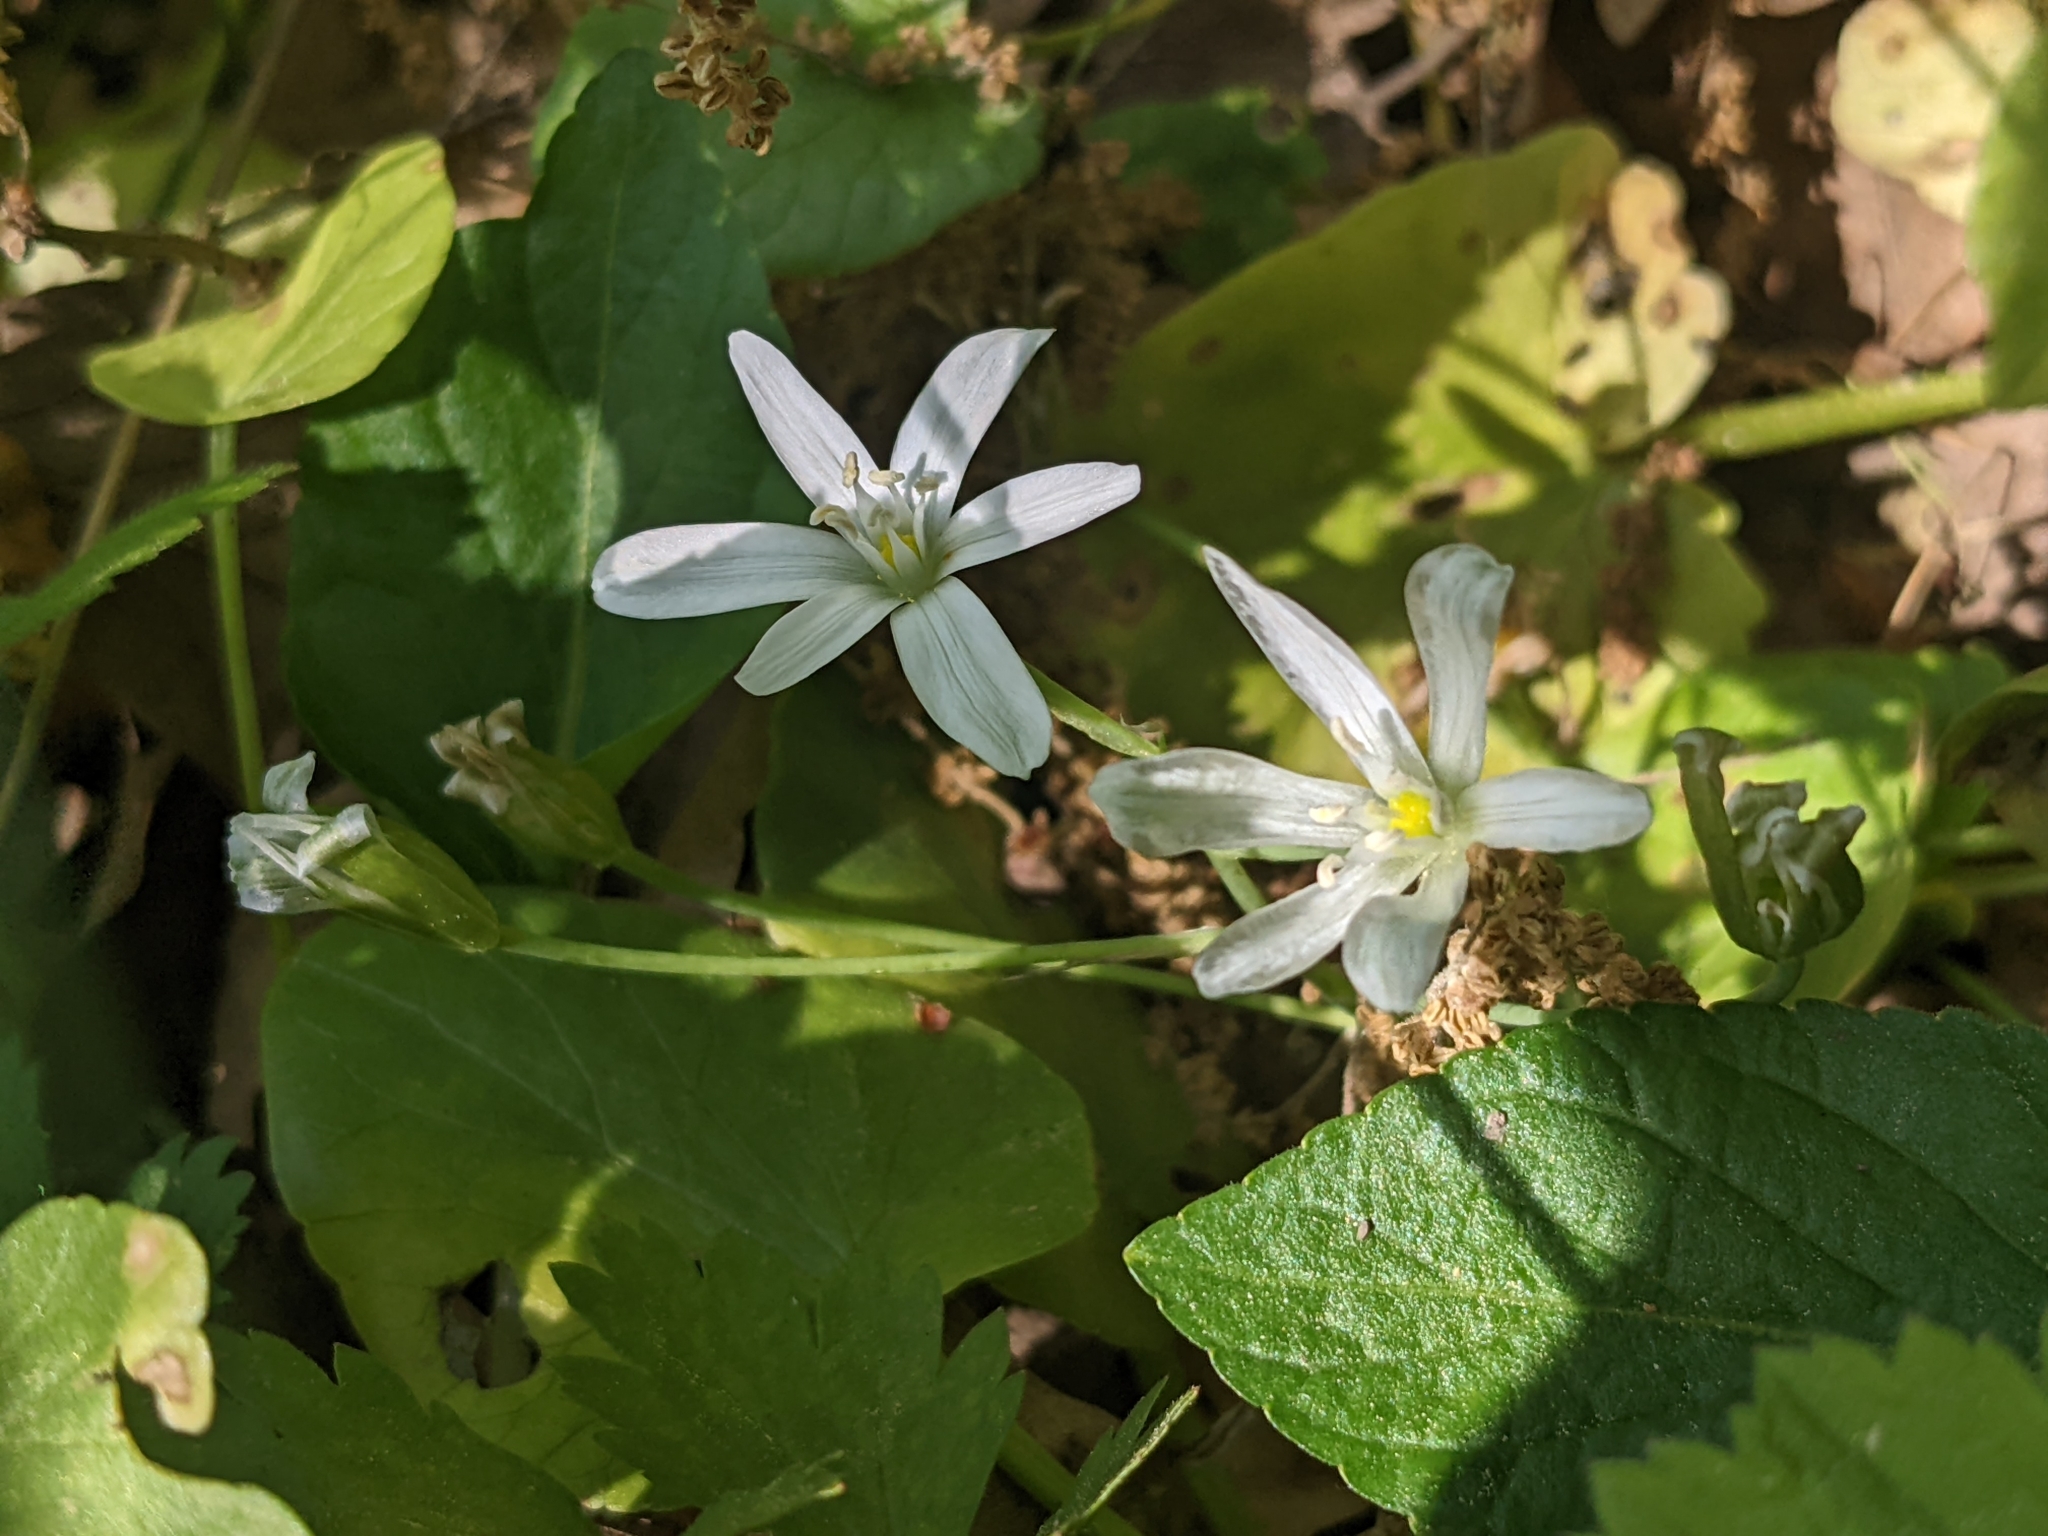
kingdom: Plantae
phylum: Tracheophyta
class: Liliopsida
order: Asparagales
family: Asparagaceae
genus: Ornithogalum
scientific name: Ornithogalum umbellatum
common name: Garden star-of-bethlehem
